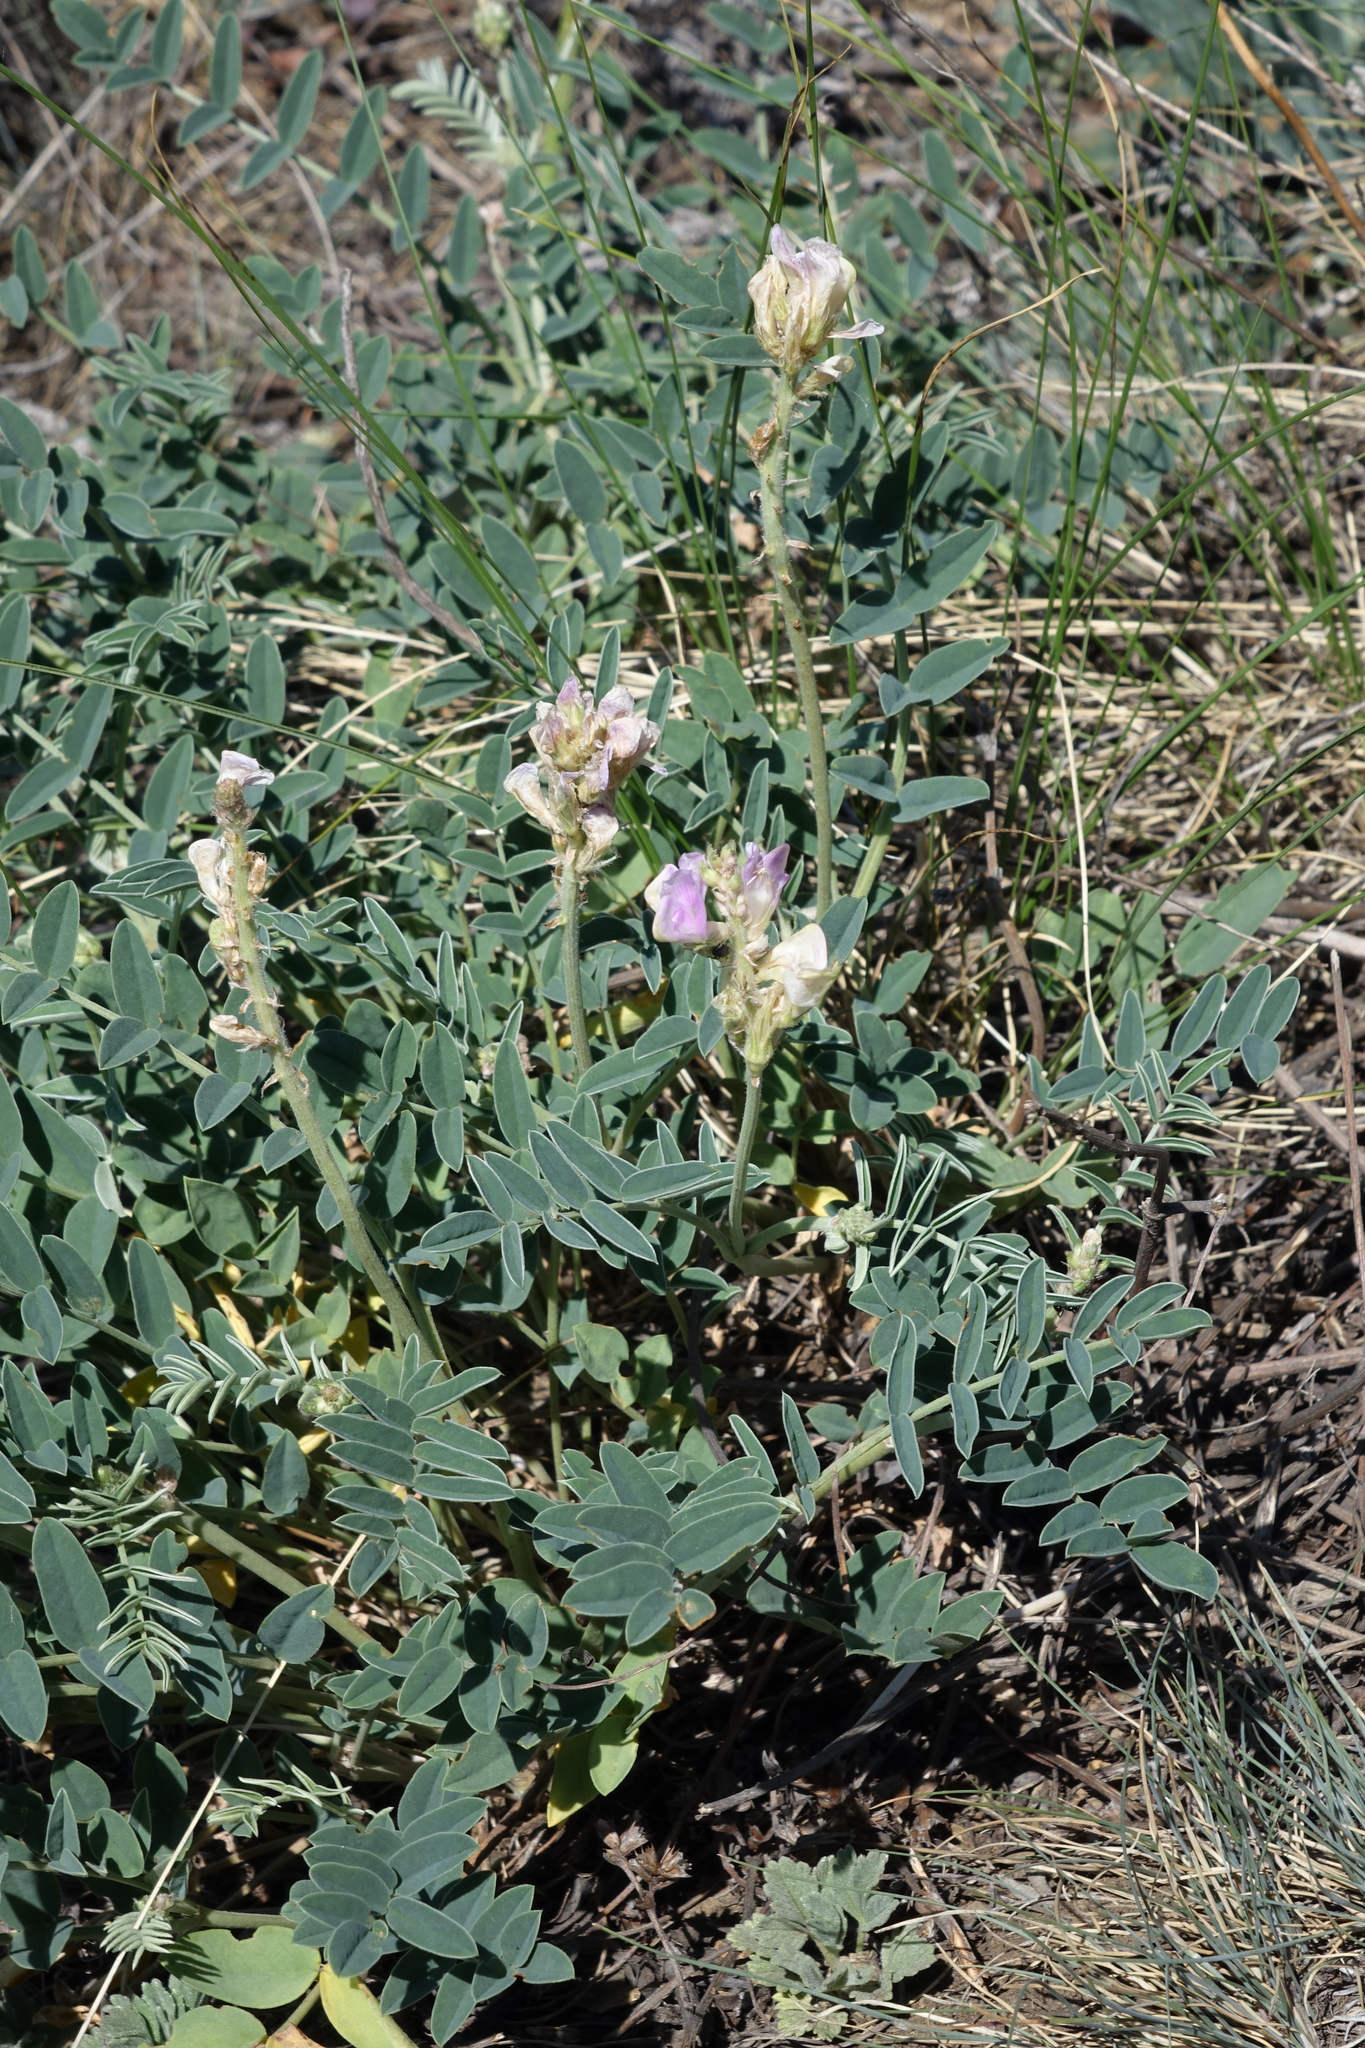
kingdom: Plantae
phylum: Tracheophyta
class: Magnoliopsida
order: Fabales
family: Fabaceae
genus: Hedysarum
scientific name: Hedysarum gmelinii
